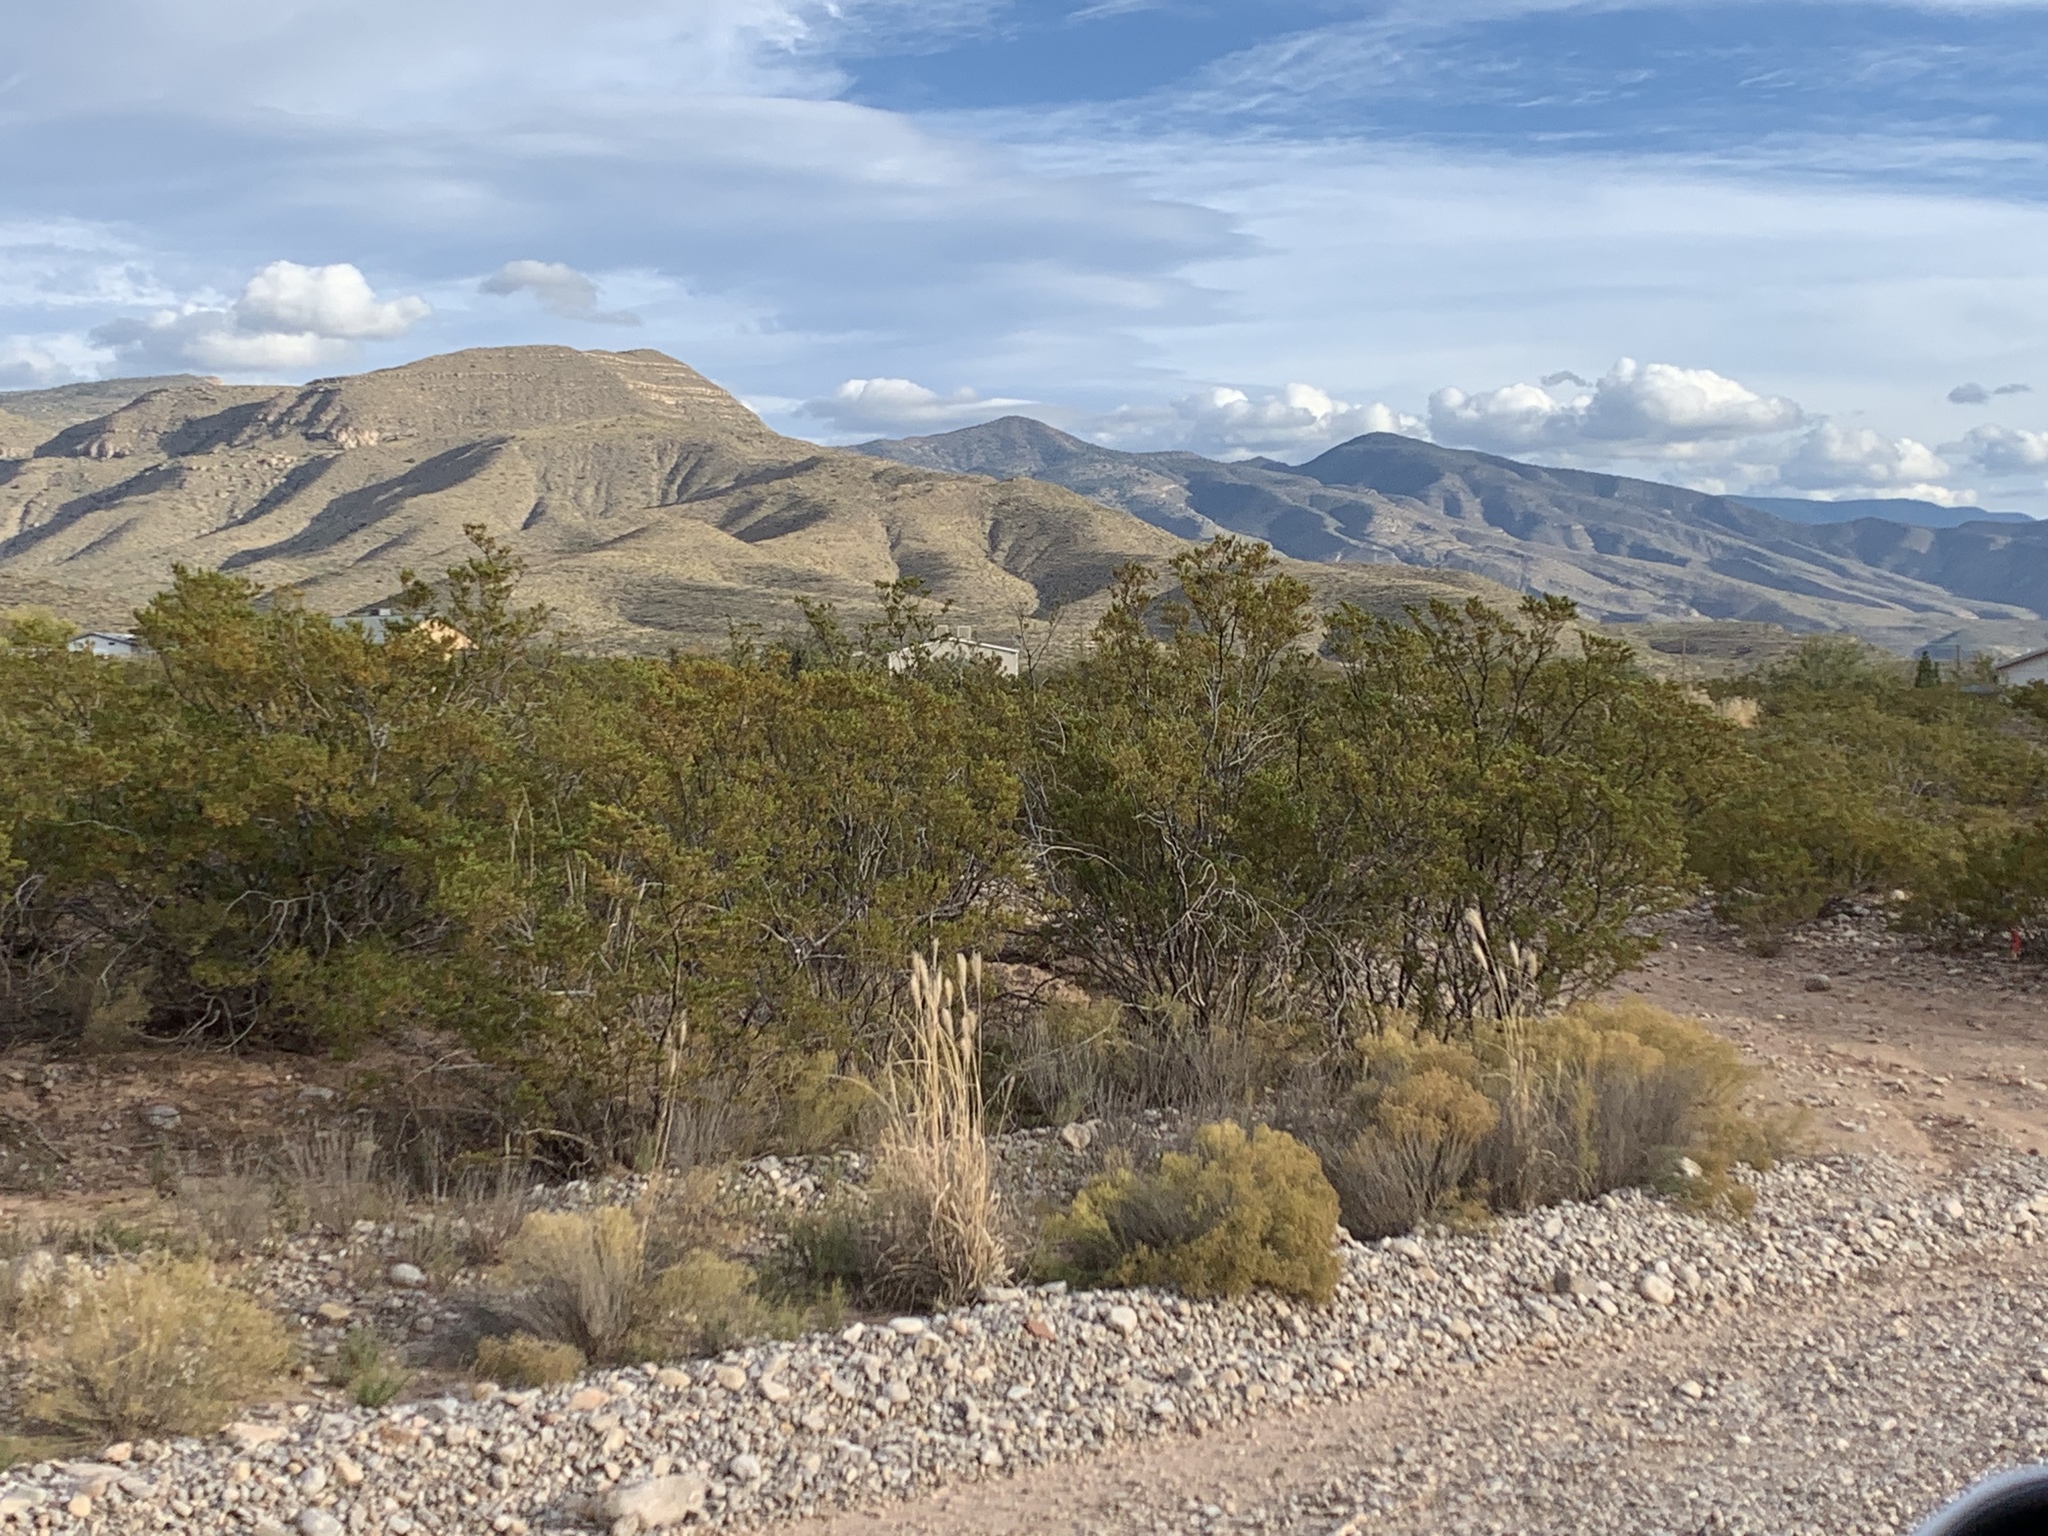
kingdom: Plantae
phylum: Tracheophyta
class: Magnoliopsida
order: Zygophyllales
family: Zygophyllaceae
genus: Larrea
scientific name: Larrea tridentata
